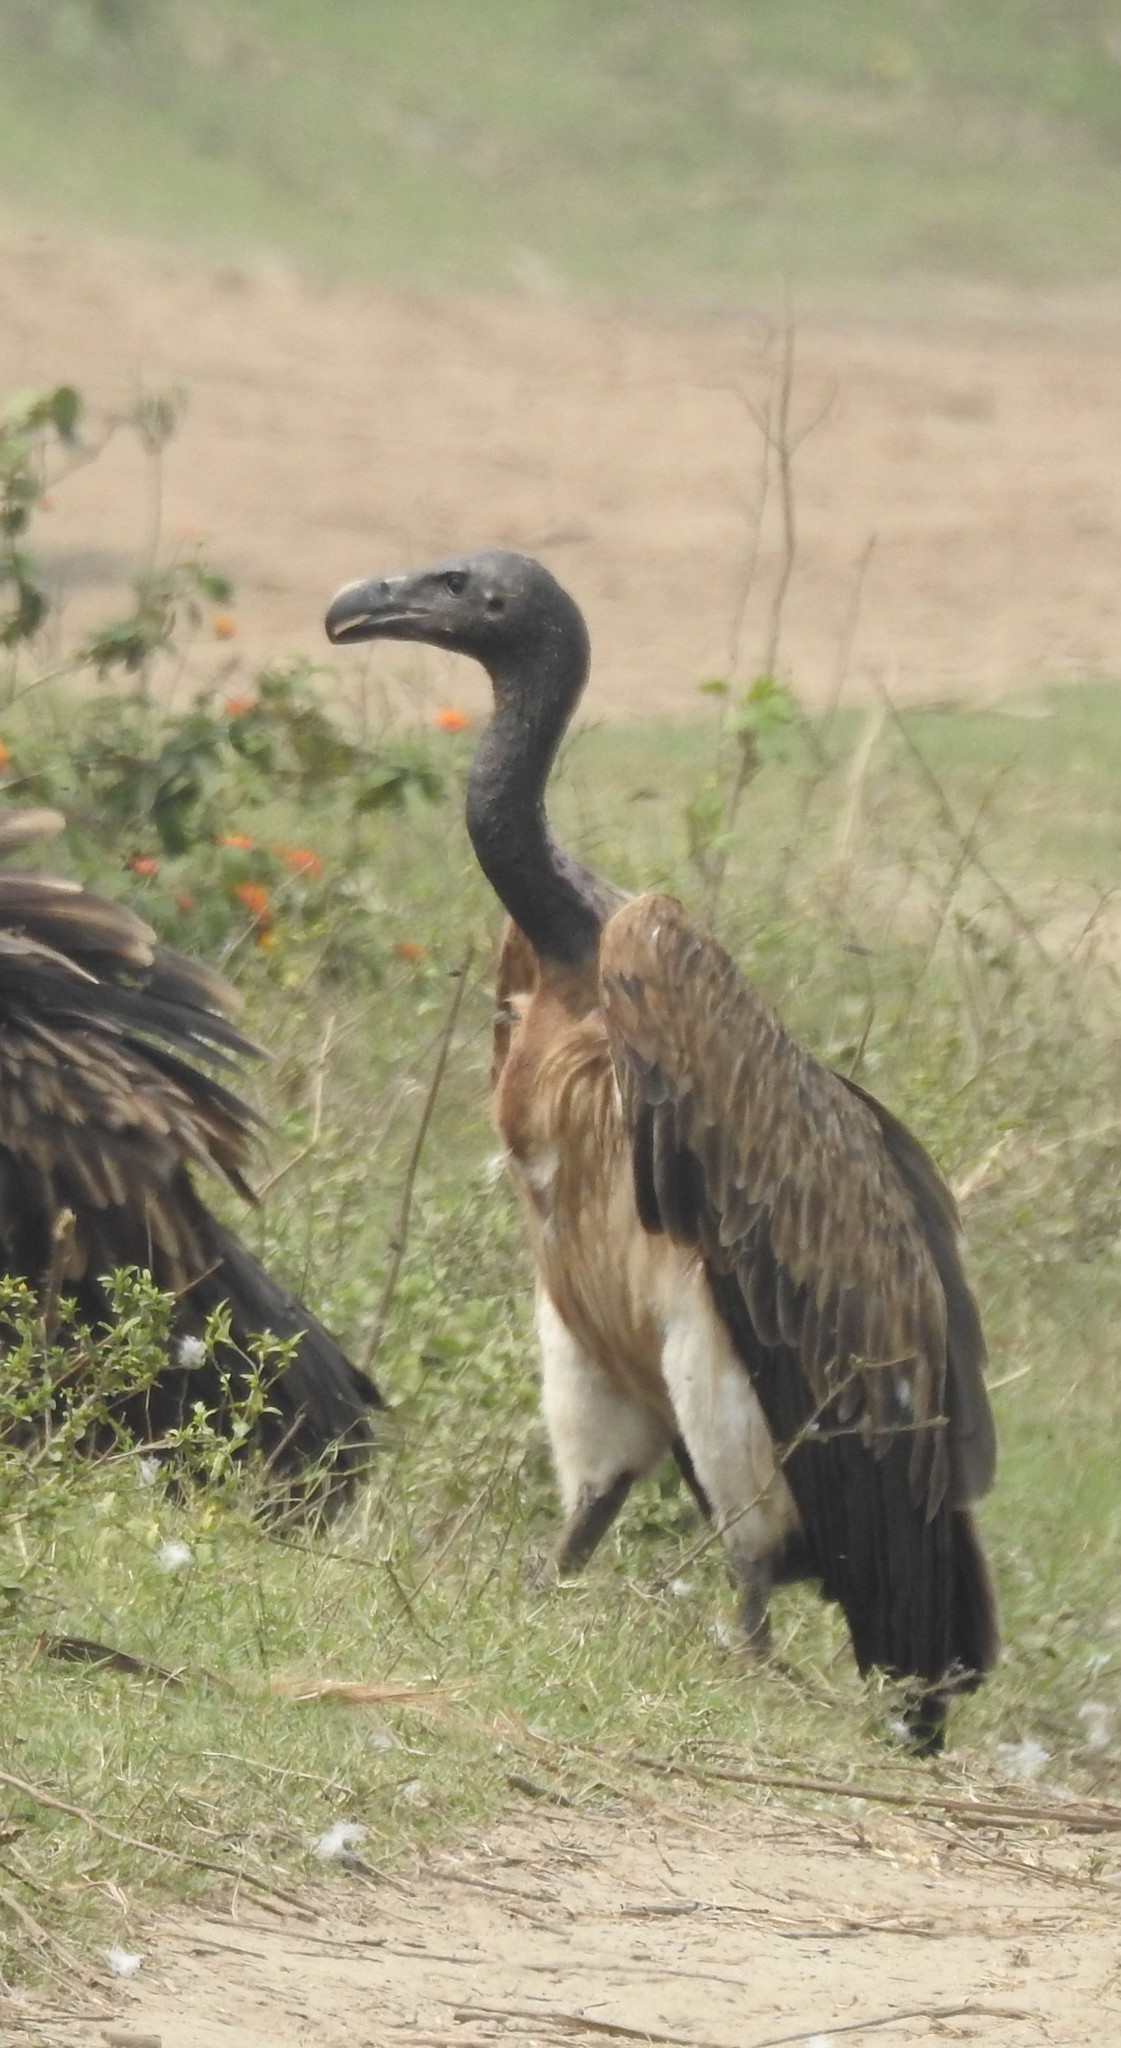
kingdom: Animalia
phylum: Chordata
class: Aves
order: Accipitriformes
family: Accipitridae
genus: Gyps
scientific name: Gyps tenuirostris
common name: Slender-billed vulture
